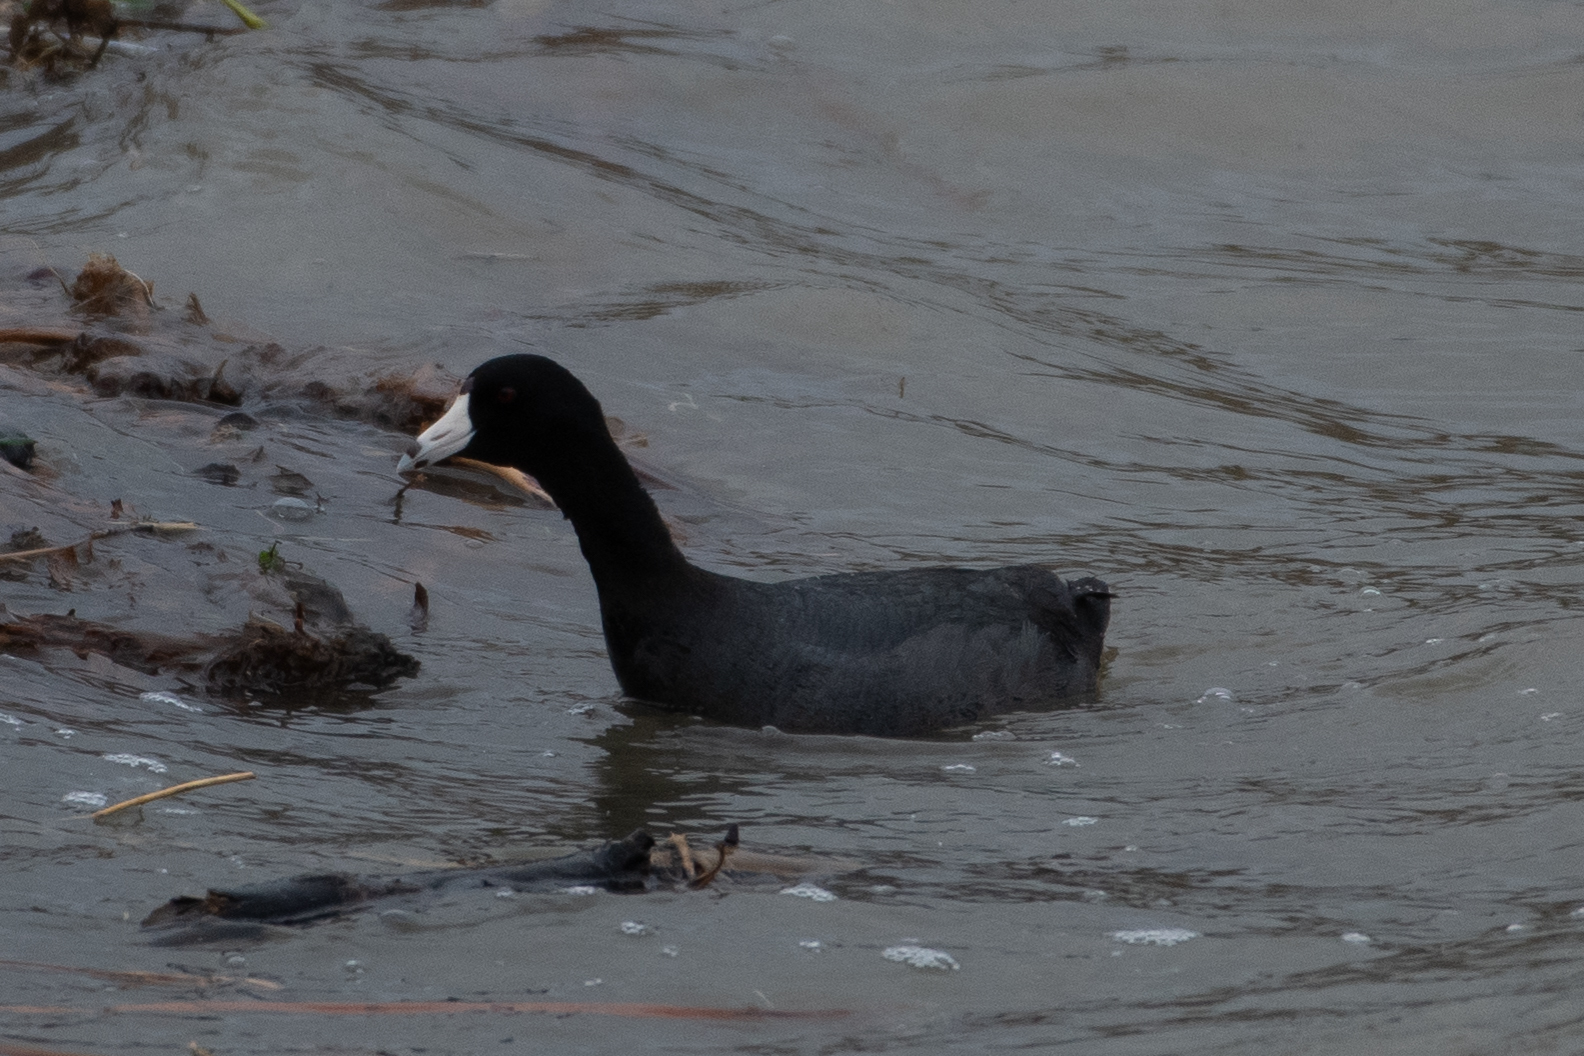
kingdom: Animalia
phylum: Chordata
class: Aves
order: Gruiformes
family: Rallidae
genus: Fulica
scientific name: Fulica americana
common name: American coot
